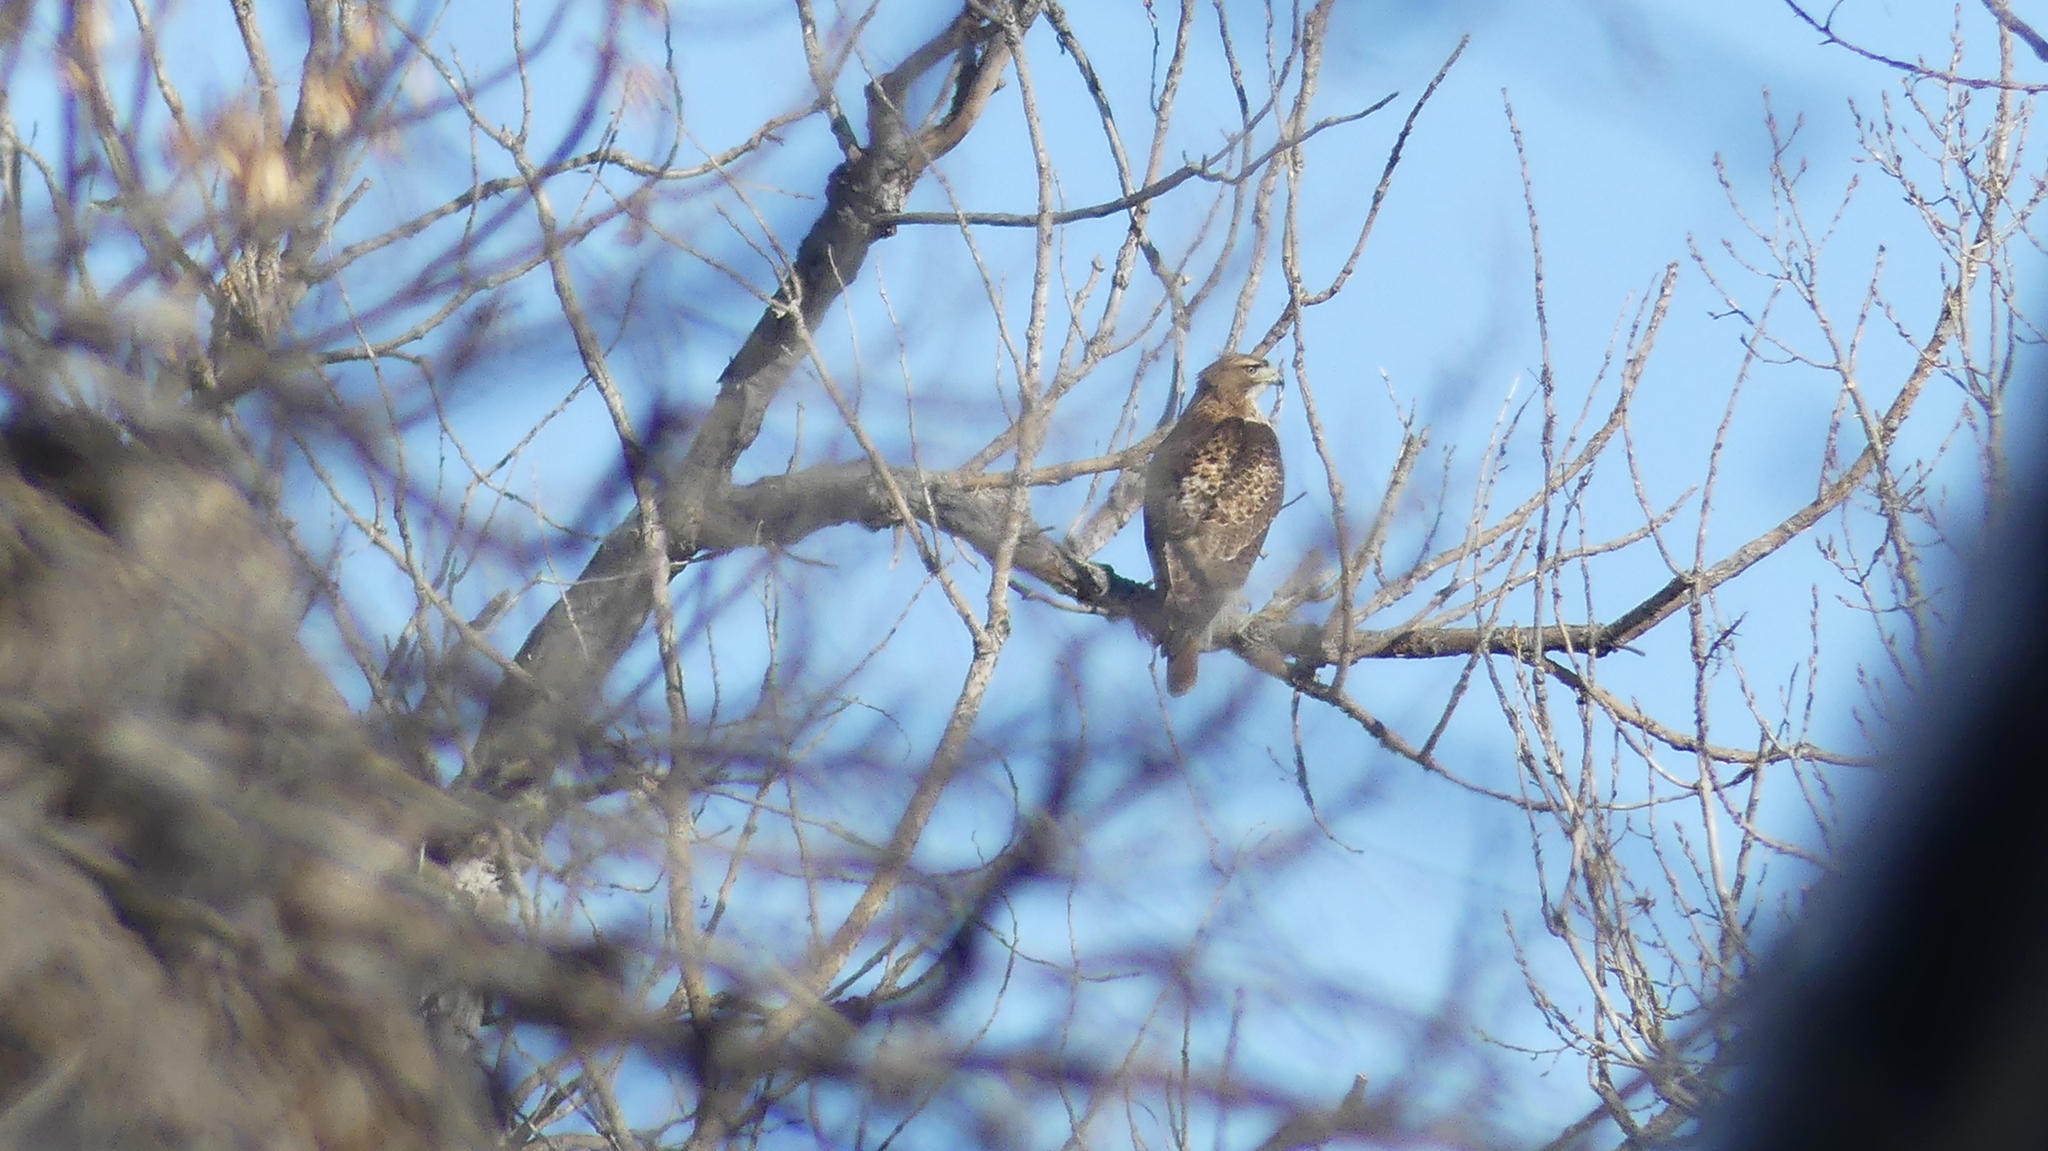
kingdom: Animalia
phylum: Chordata
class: Aves
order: Accipitriformes
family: Accipitridae
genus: Buteo
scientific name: Buteo jamaicensis
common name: Red-tailed hawk
